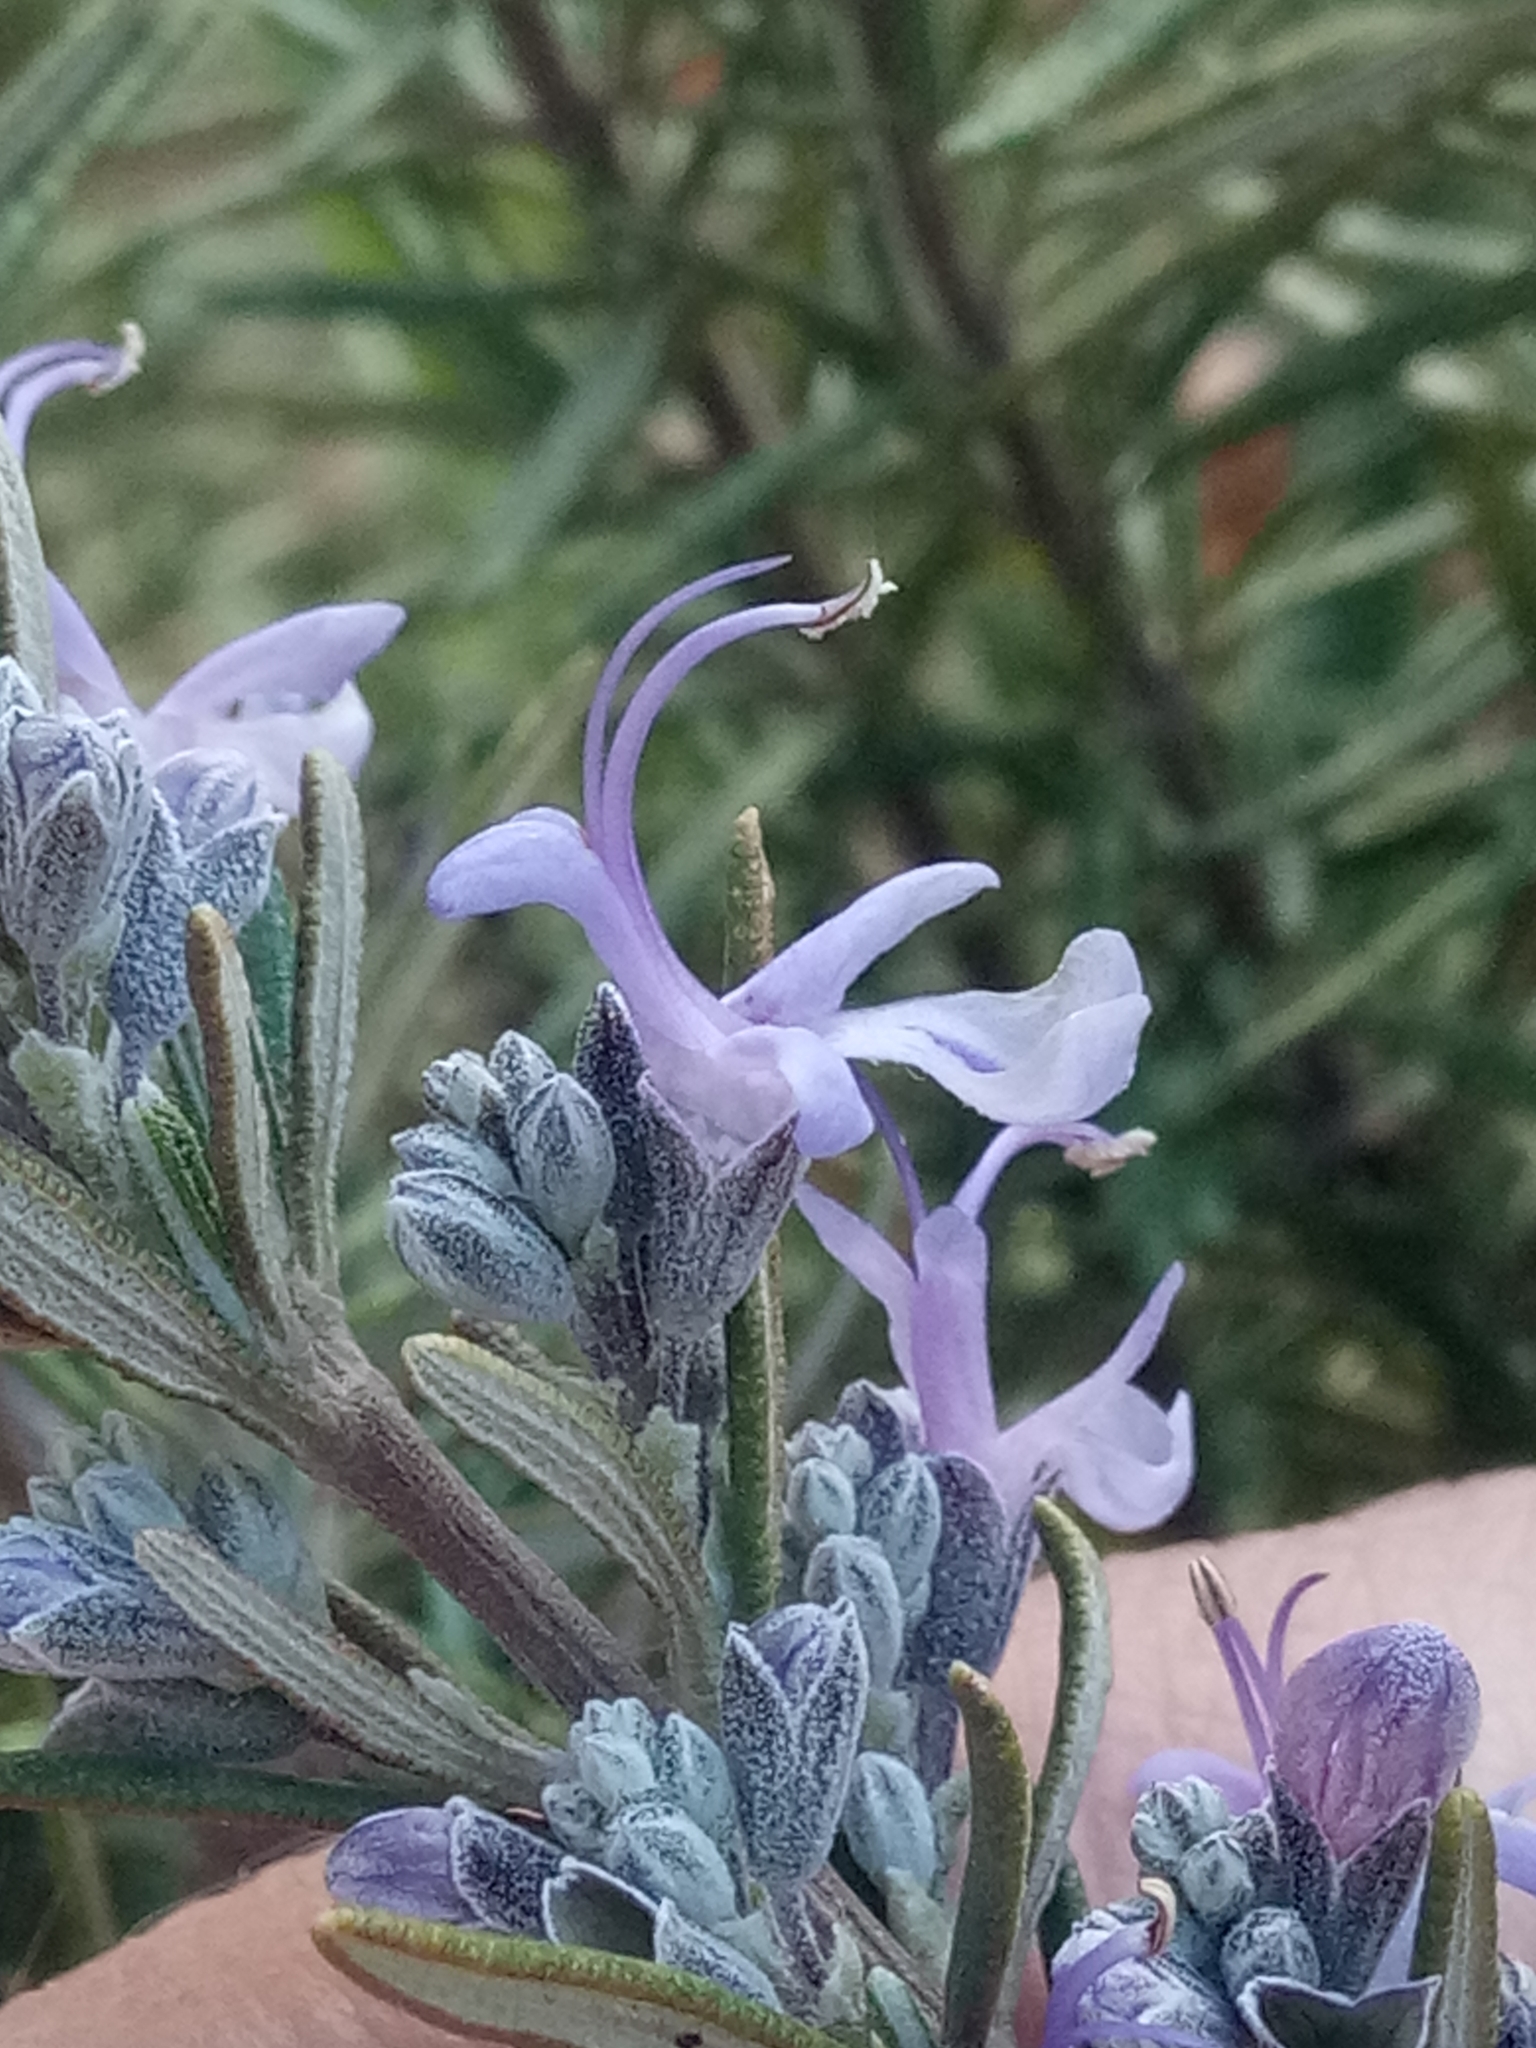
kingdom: Plantae
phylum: Tracheophyta
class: Magnoliopsida
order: Lamiales
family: Lamiaceae
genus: Salvia
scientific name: Salvia rosmarinus
